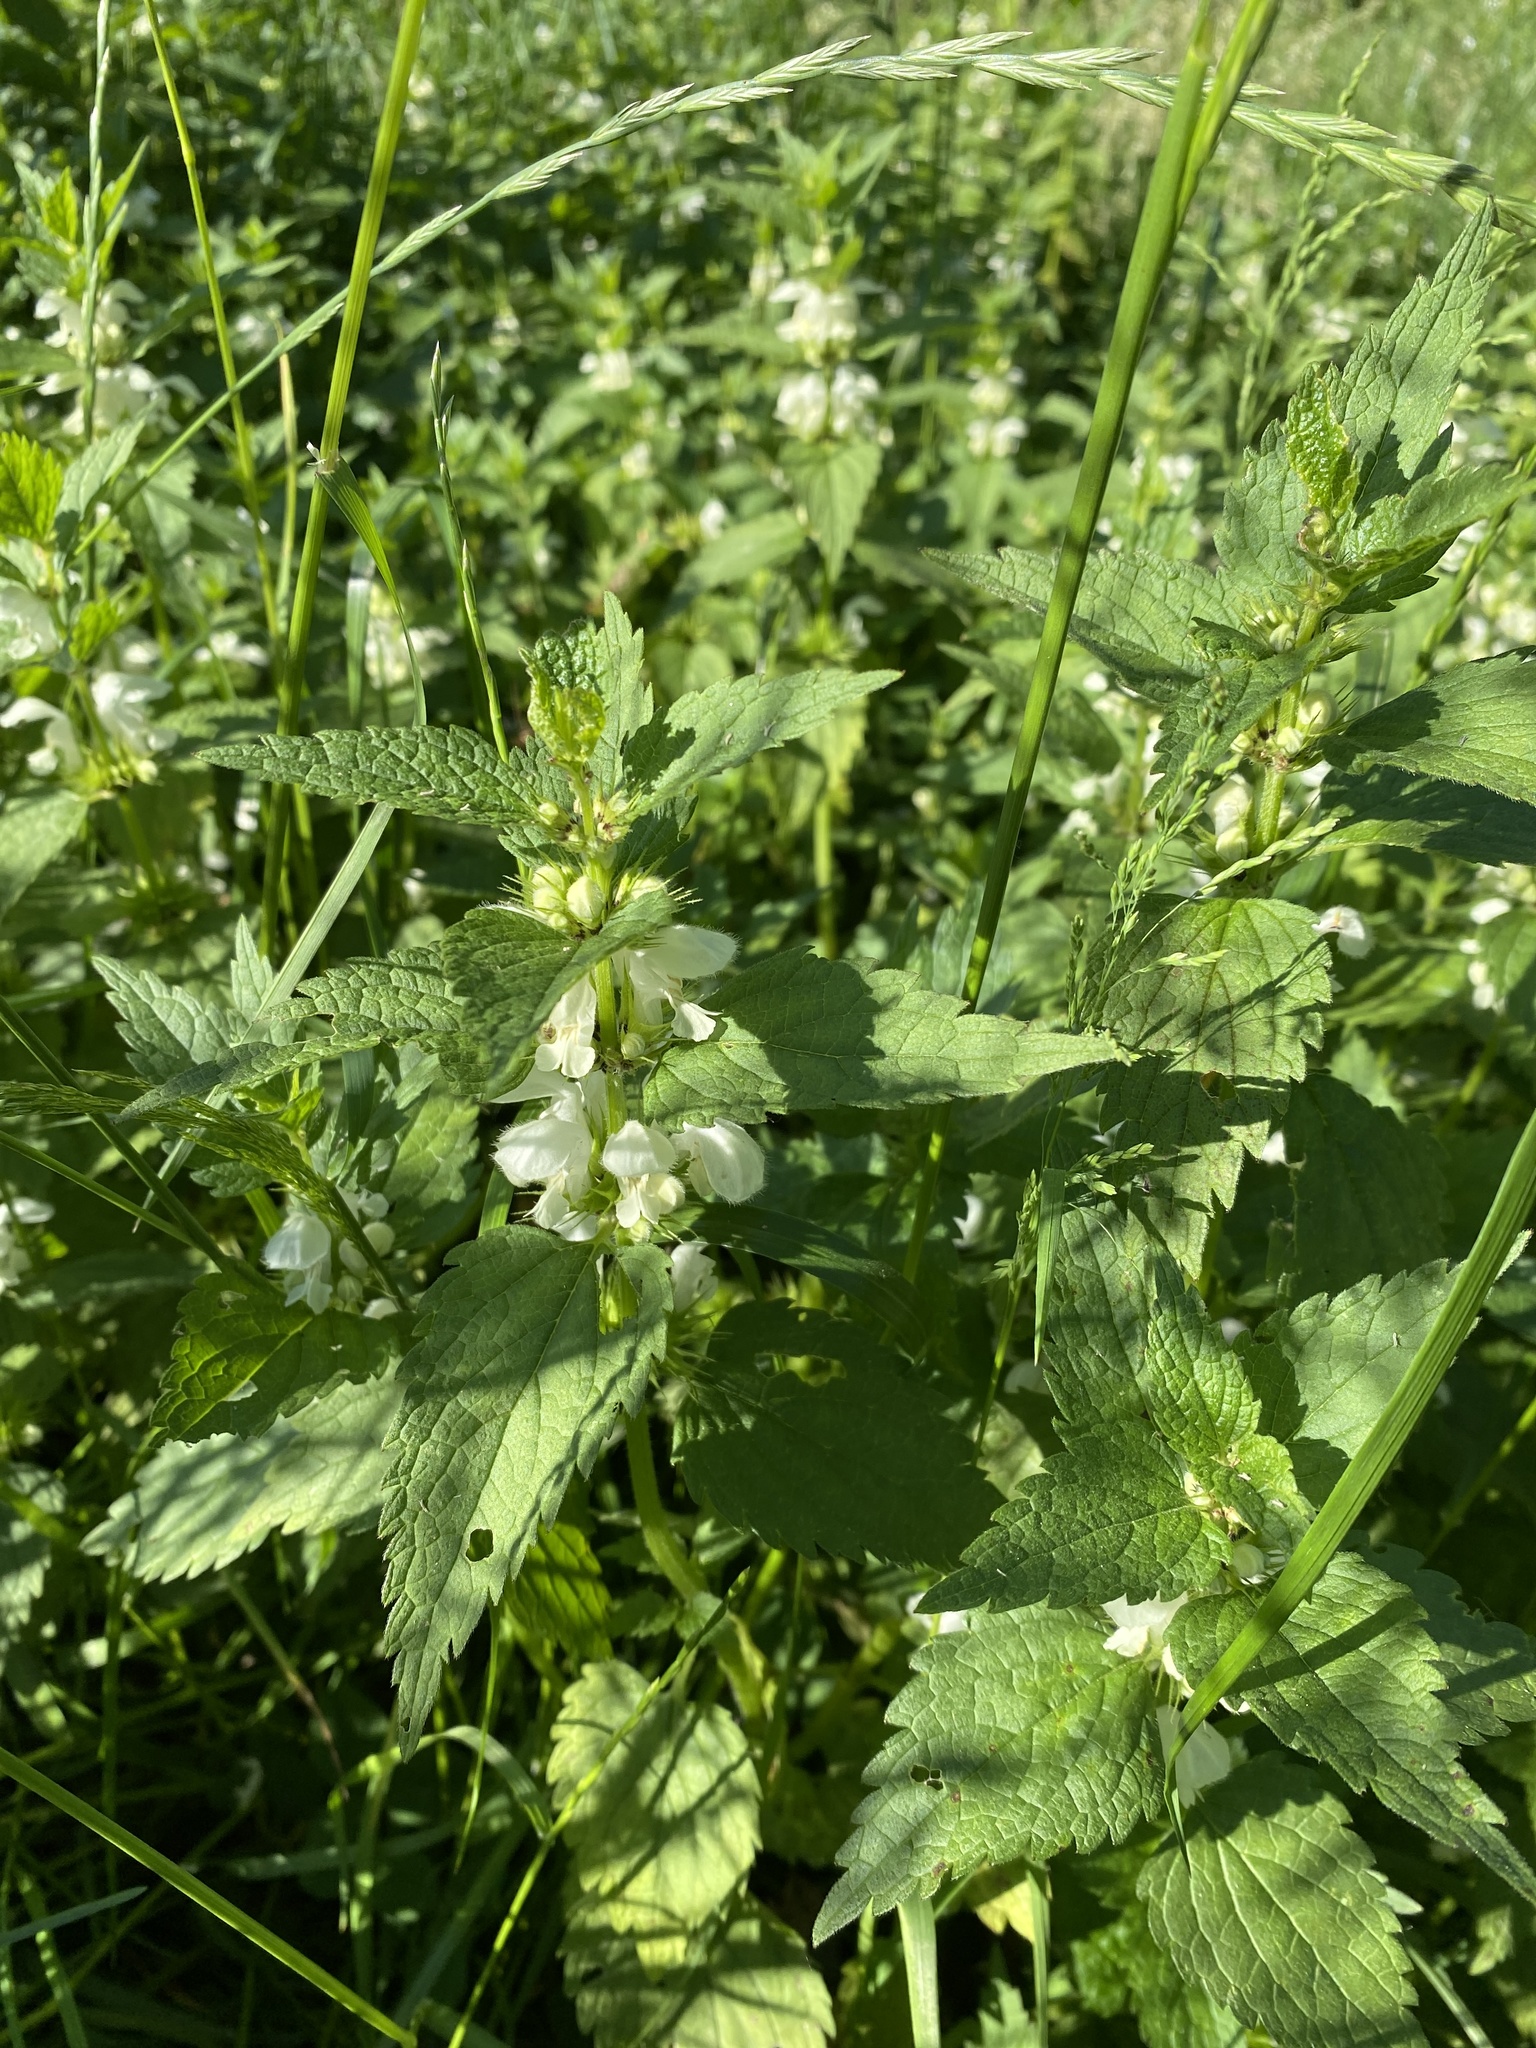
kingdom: Plantae
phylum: Tracheophyta
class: Magnoliopsida
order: Lamiales
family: Lamiaceae
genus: Lamium
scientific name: Lamium album
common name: White dead-nettle
